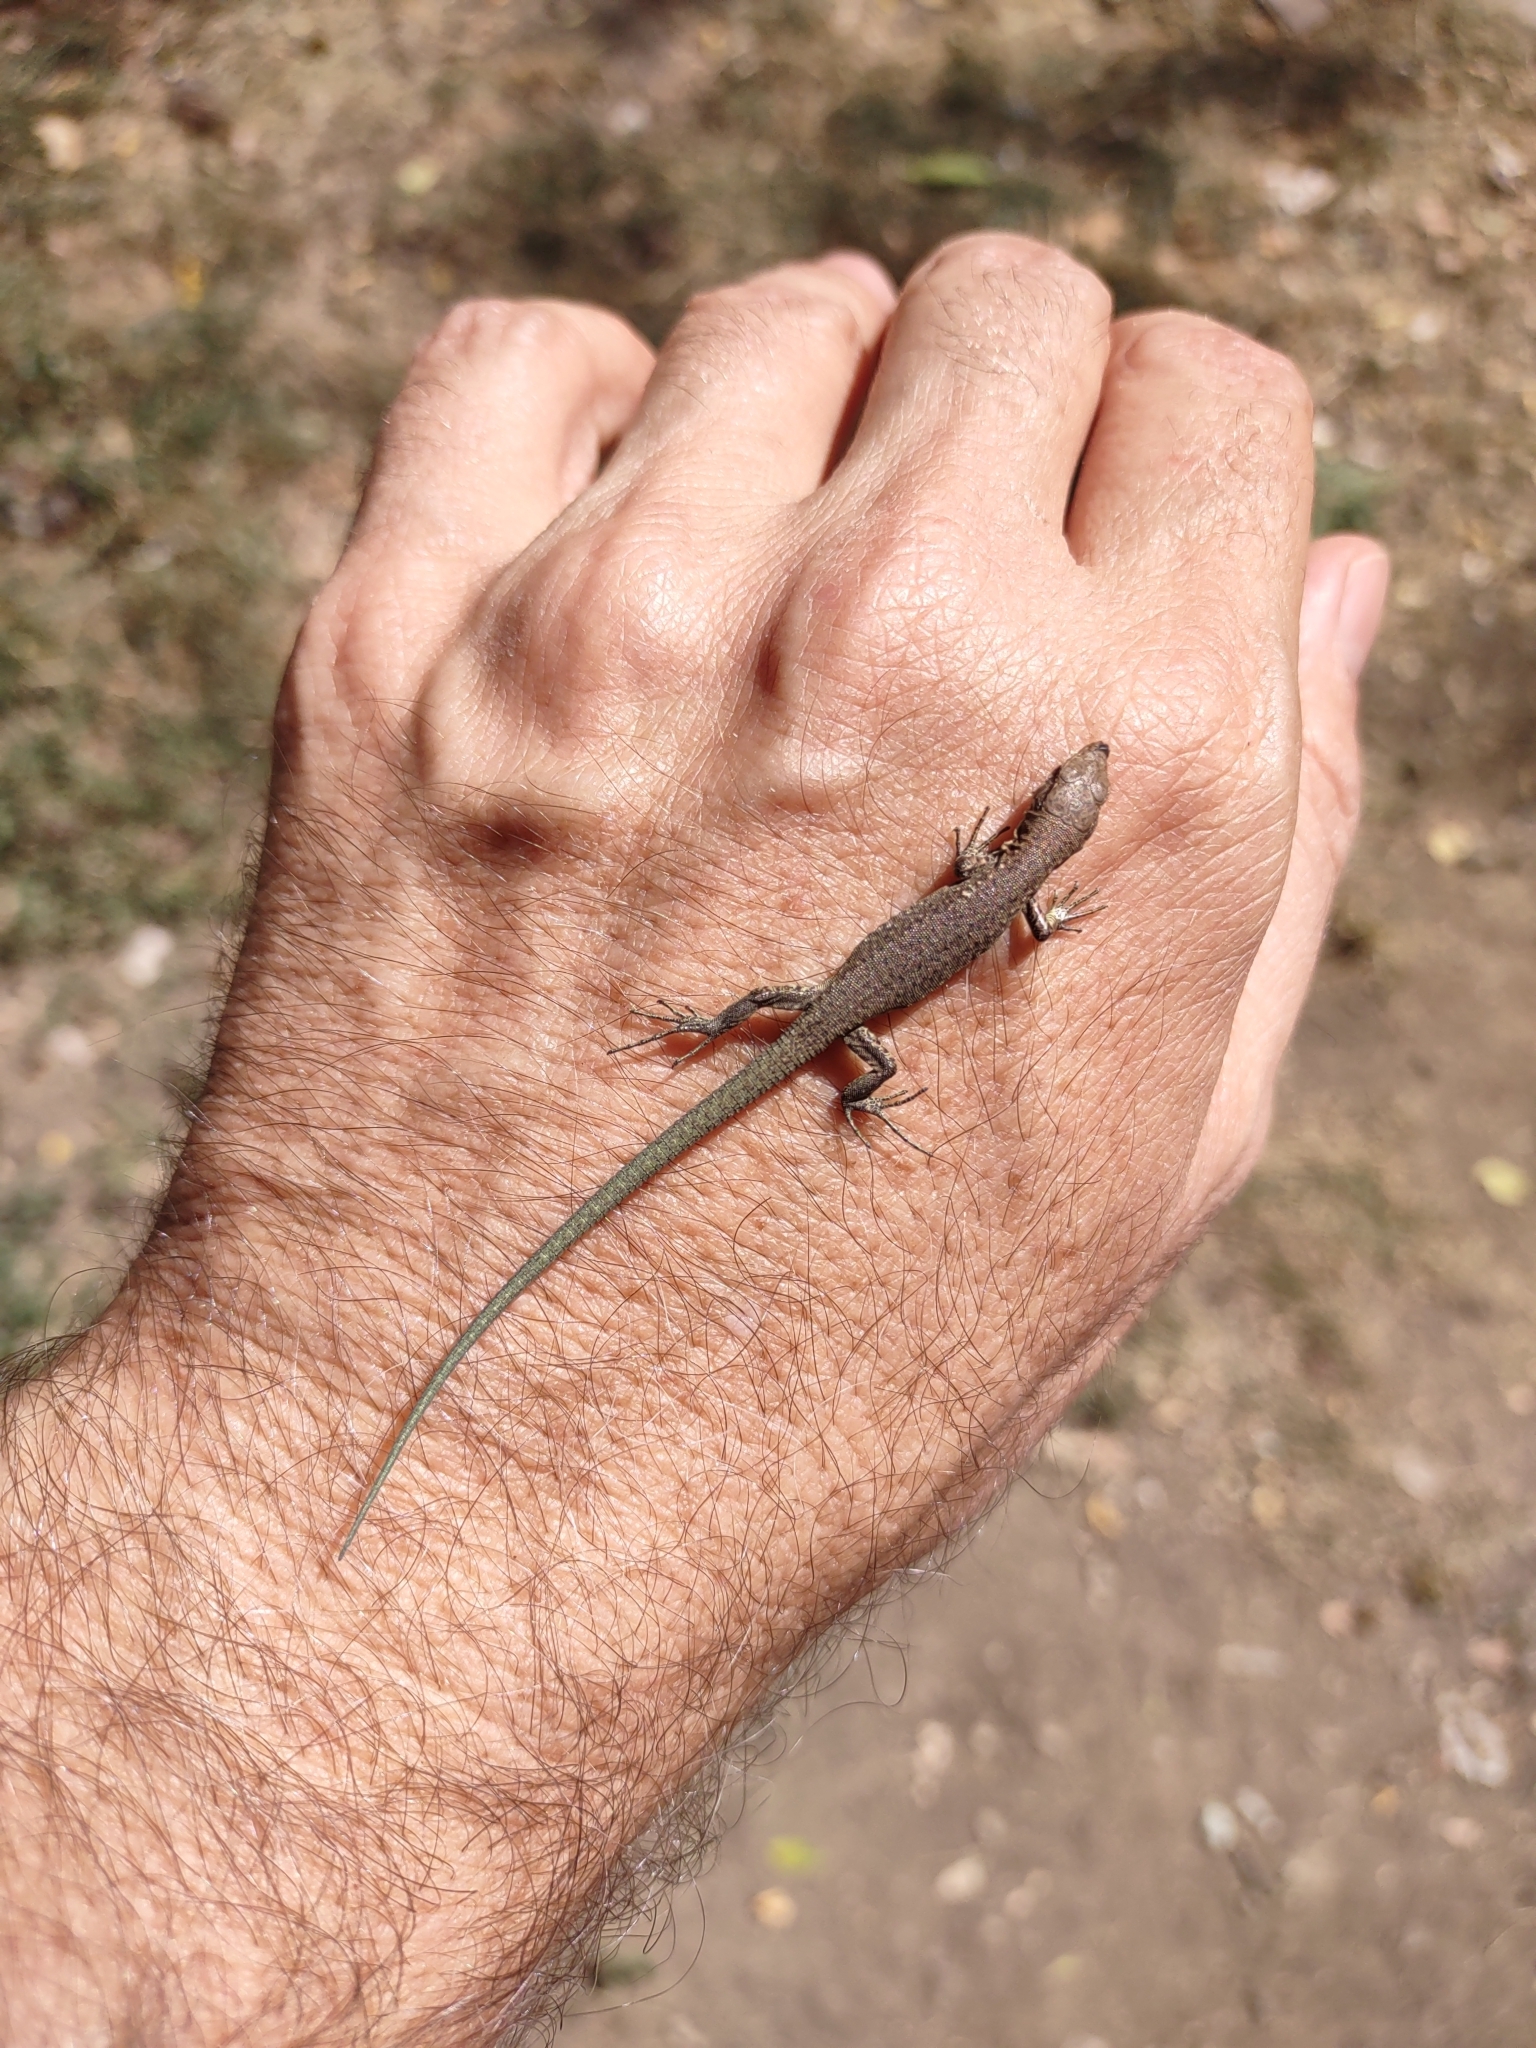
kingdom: Animalia
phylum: Chordata
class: Squamata
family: Lacertidae
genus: Darevskia
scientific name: Darevskia rostombekowi
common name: Rostombekow's lizard
